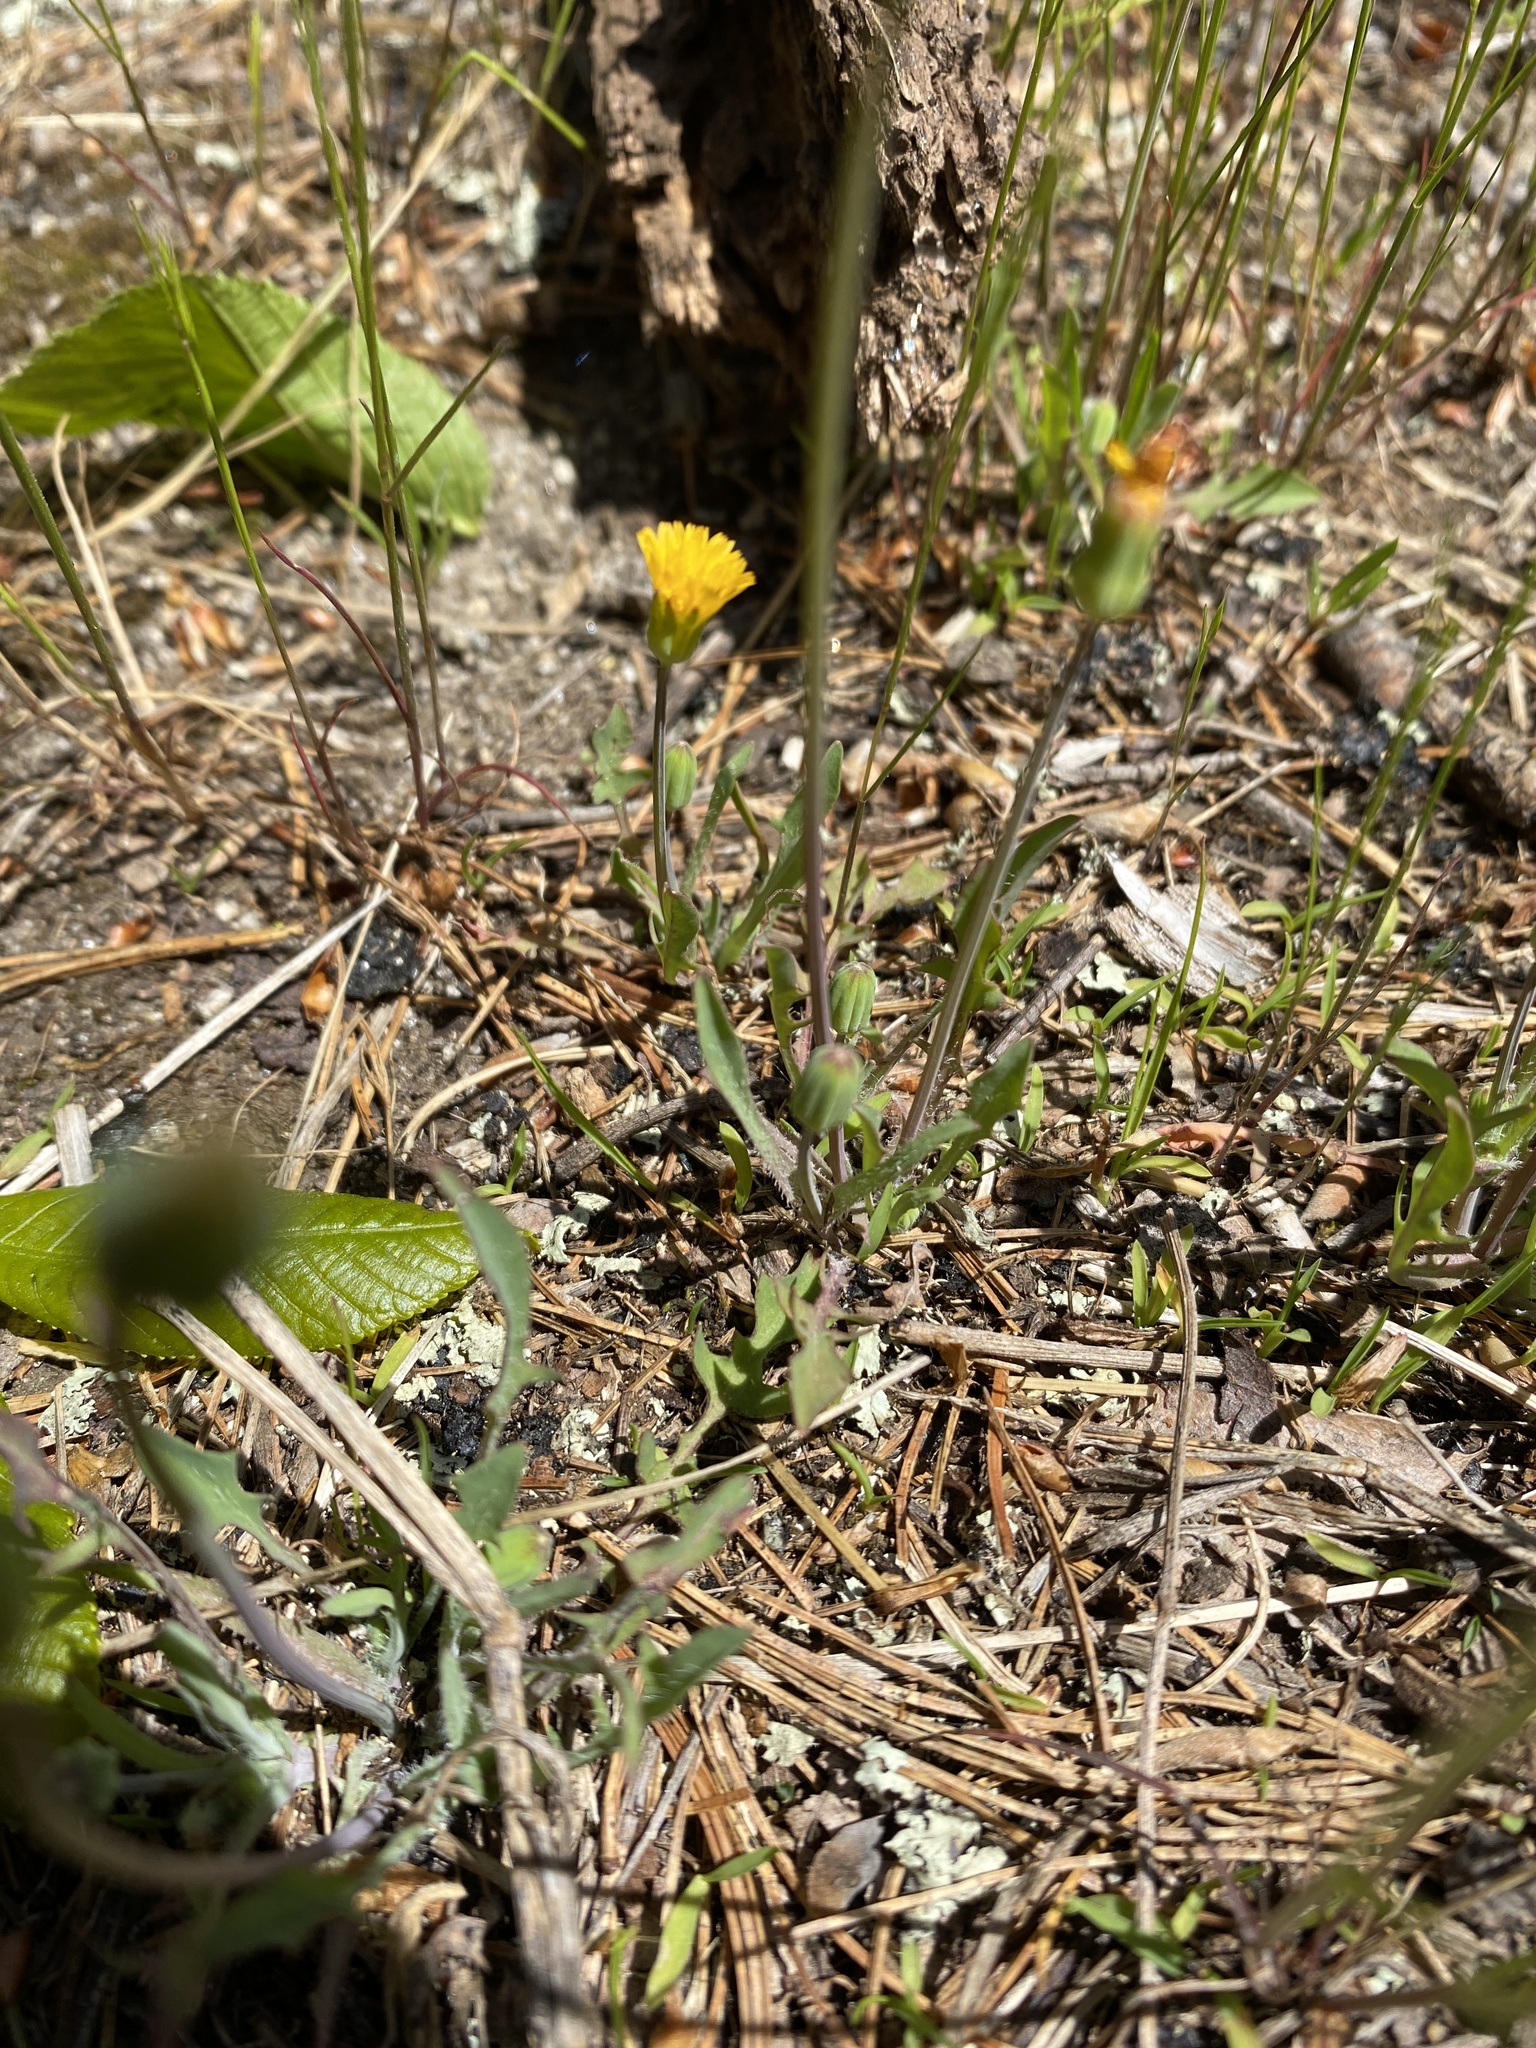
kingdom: Plantae
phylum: Tracheophyta
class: Magnoliopsida
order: Asterales
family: Asteraceae
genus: Krigia
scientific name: Krigia virginica
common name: Virginia dwarf-dandelion
